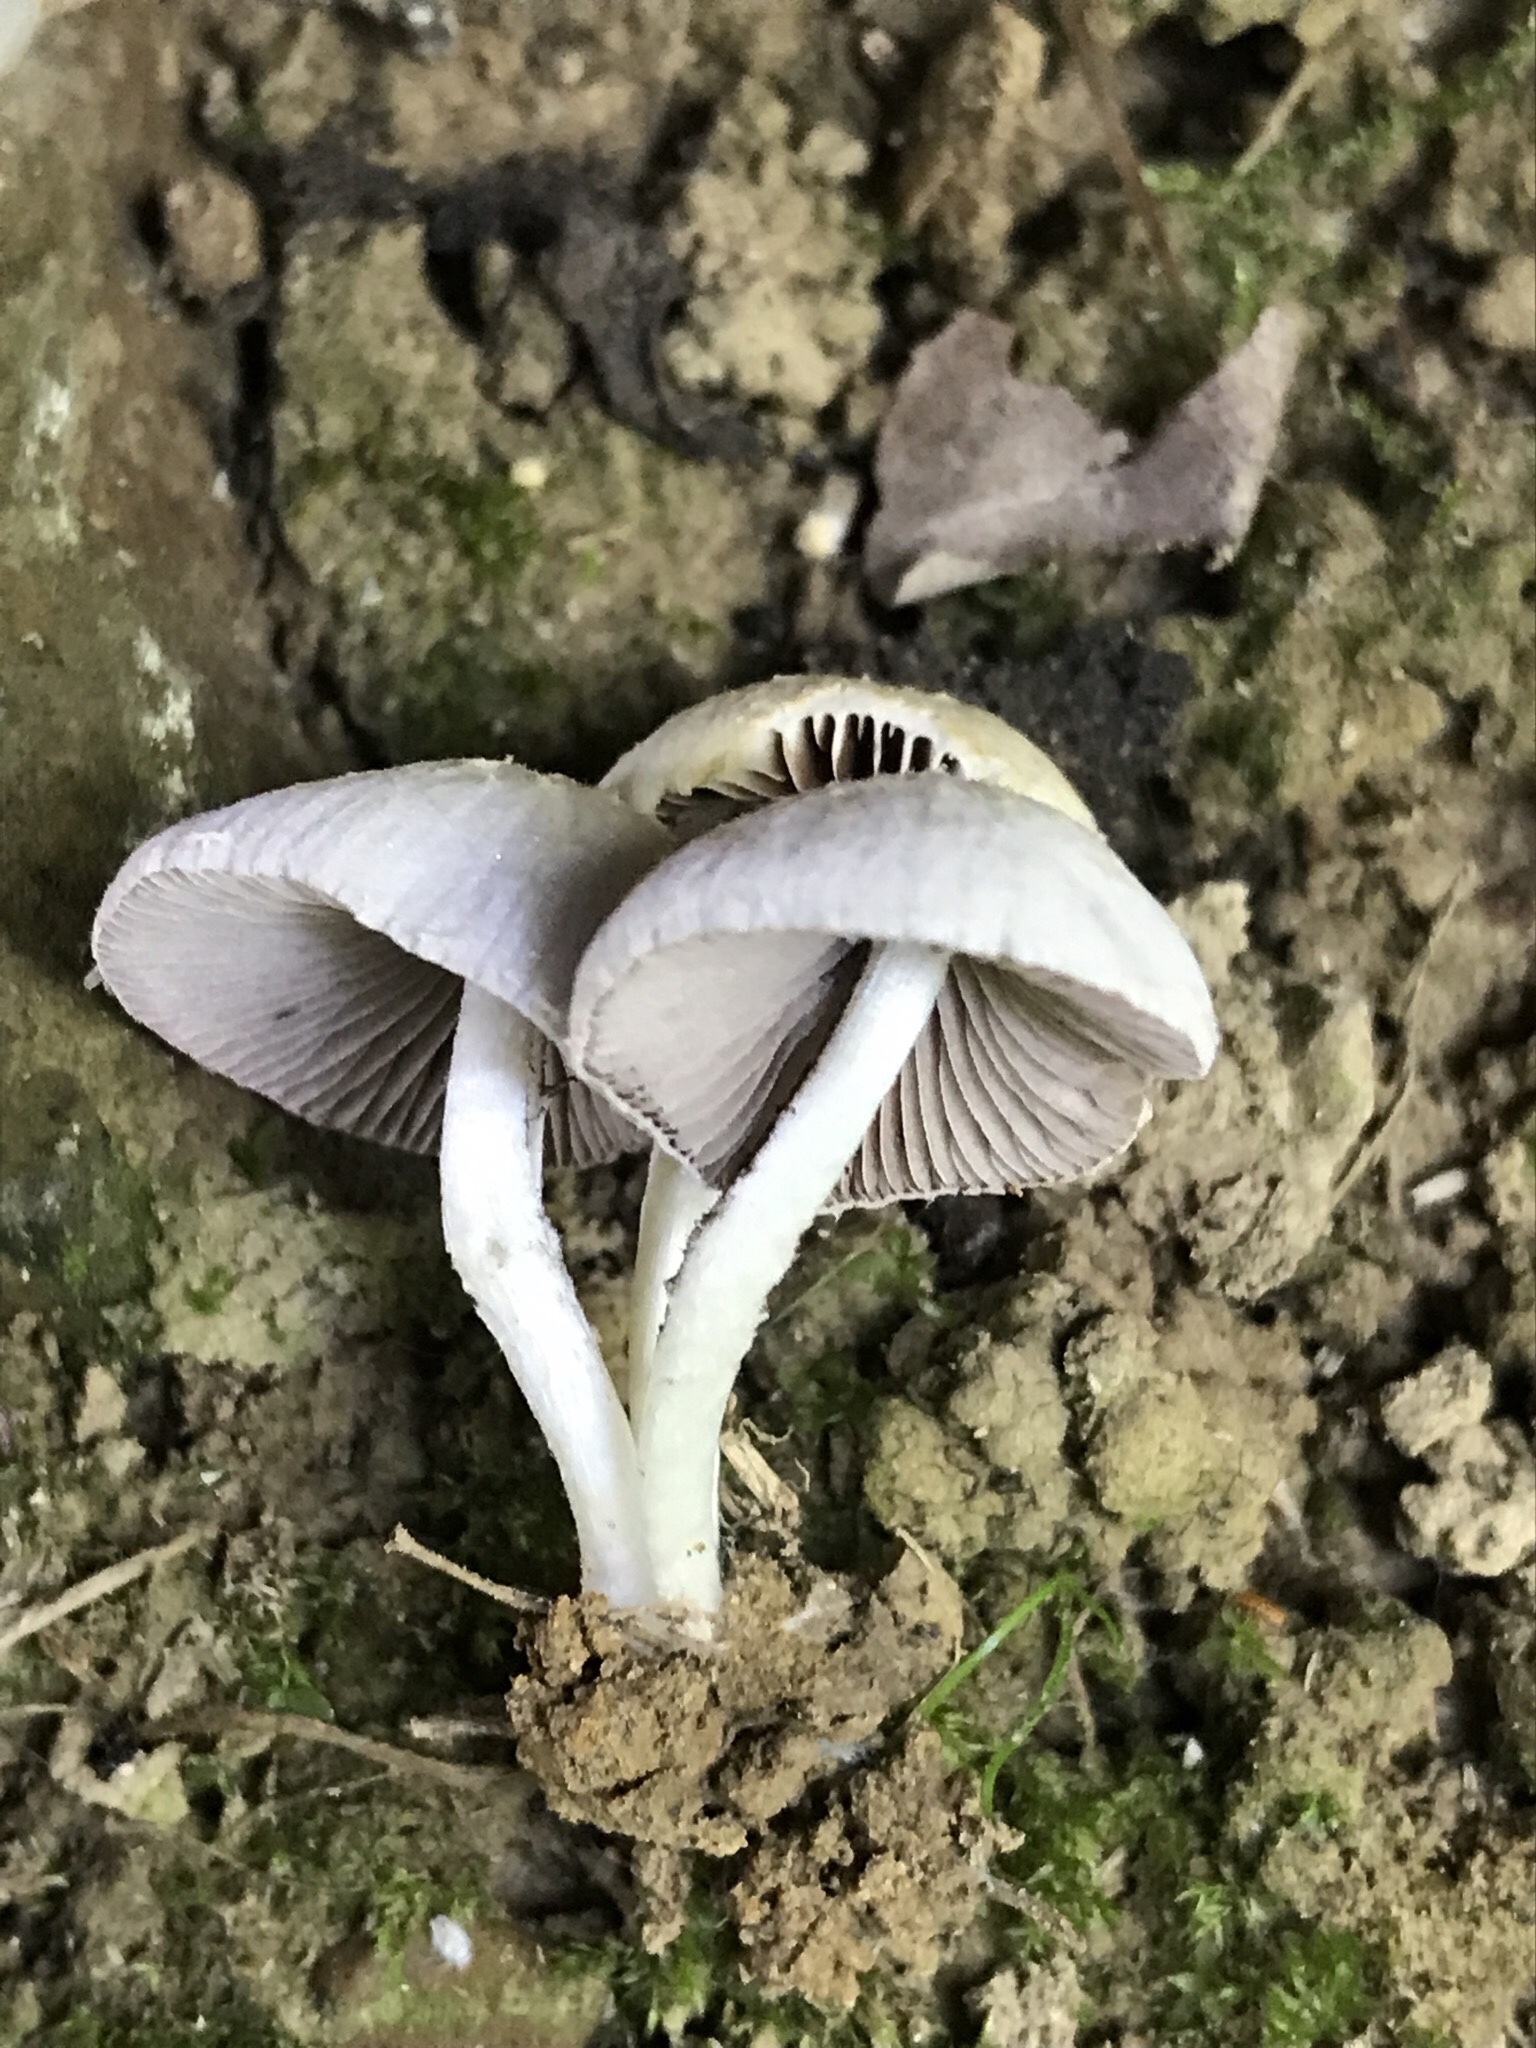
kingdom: Fungi
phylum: Basidiomycota
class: Agaricomycetes
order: Agaricales
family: Psathyrellaceae
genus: Candolleomyces
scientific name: Candolleomyces candolleanus
